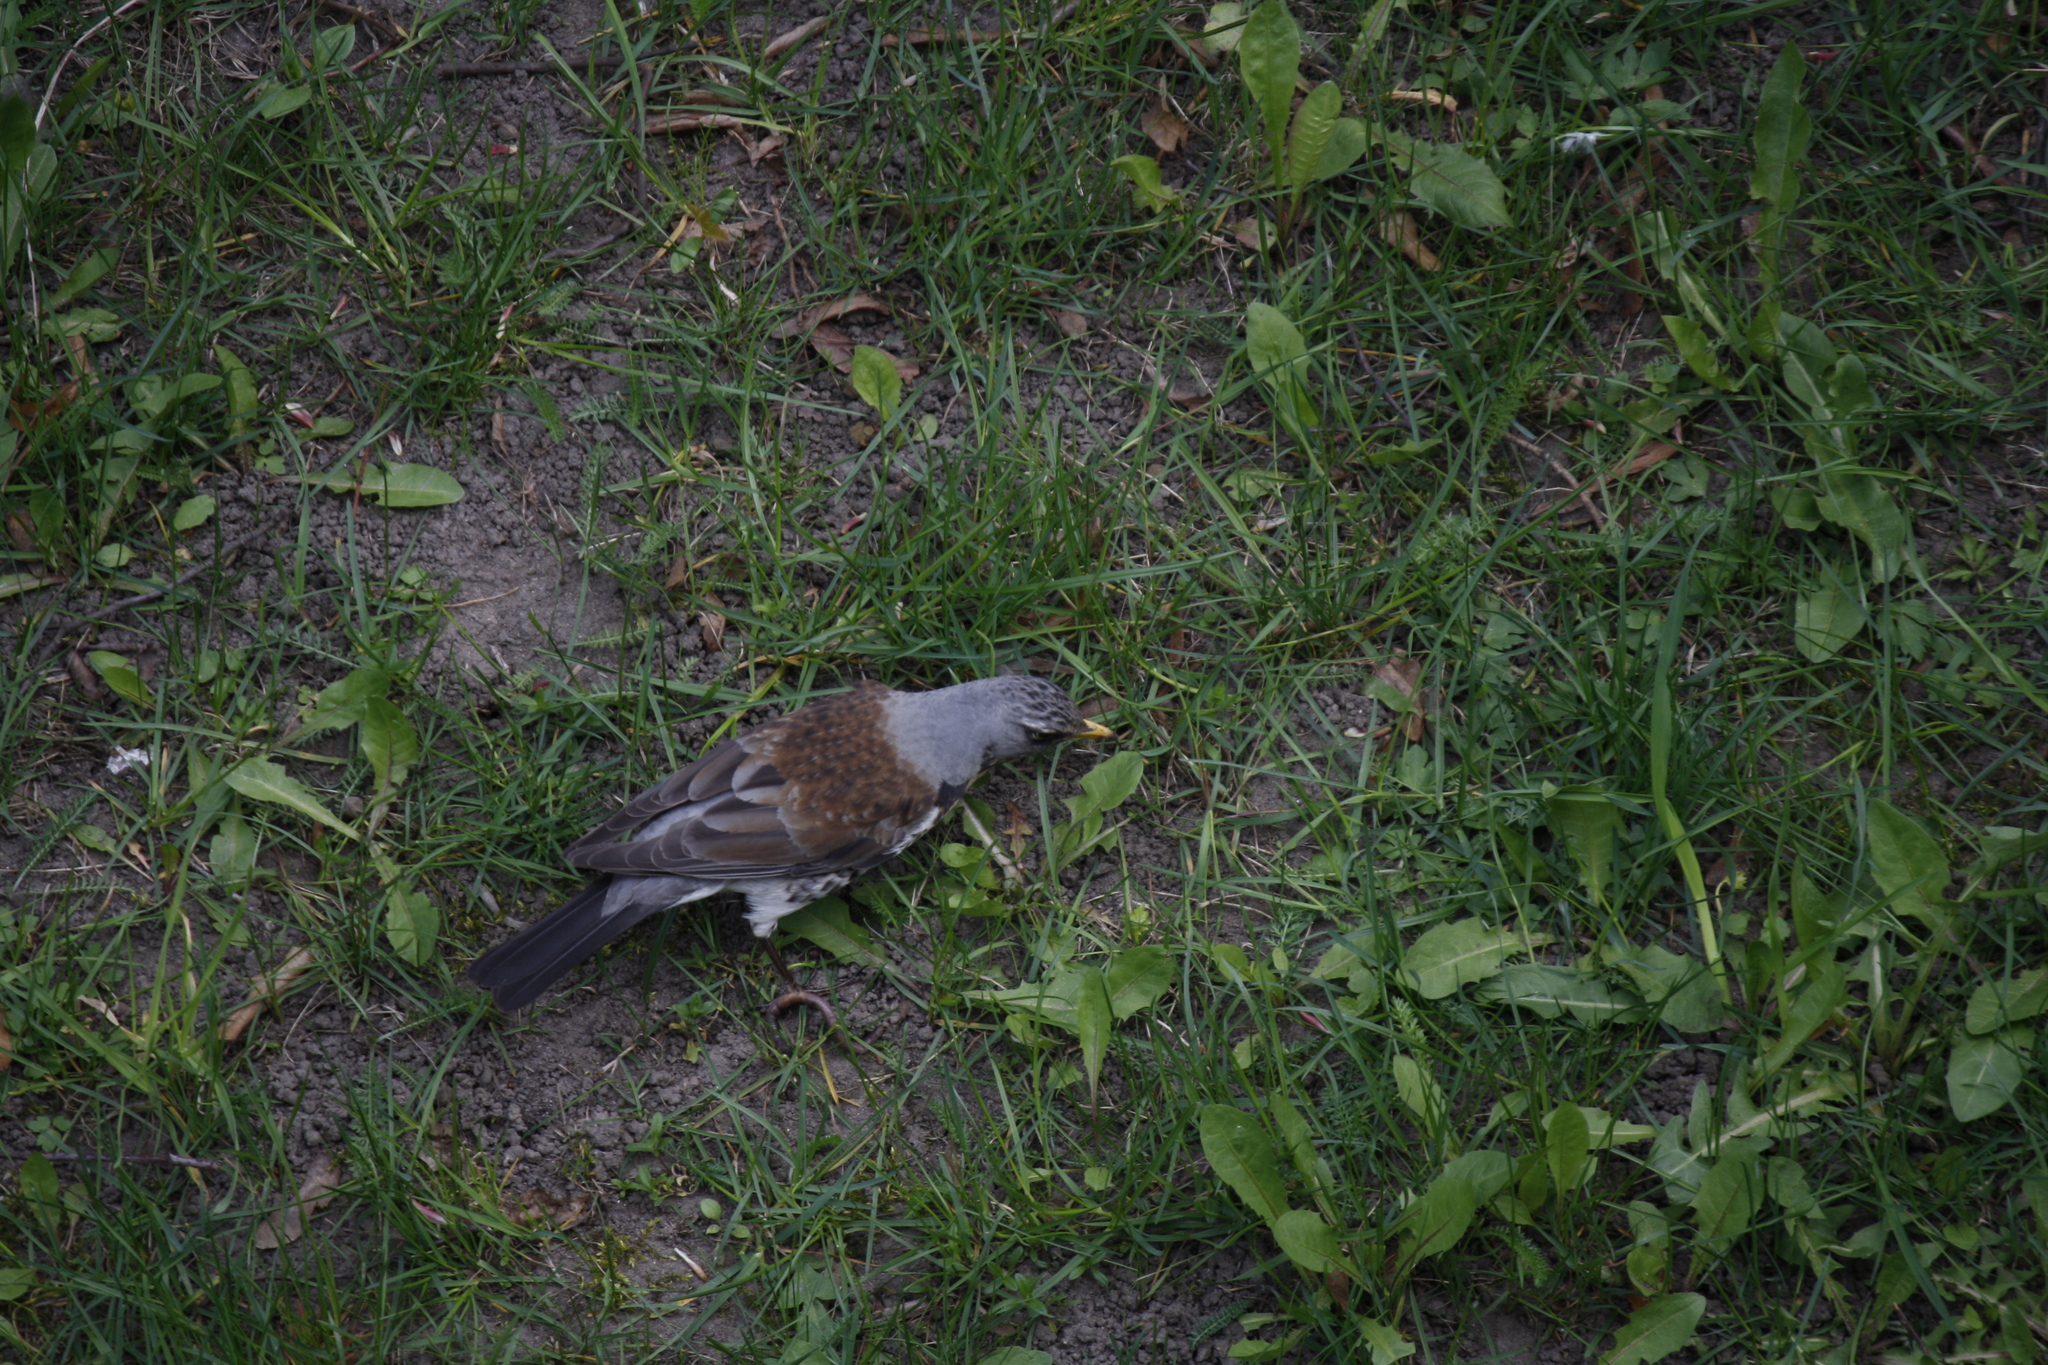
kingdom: Animalia
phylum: Chordata
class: Aves
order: Passeriformes
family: Turdidae
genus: Turdus
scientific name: Turdus pilaris
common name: Fieldfare
